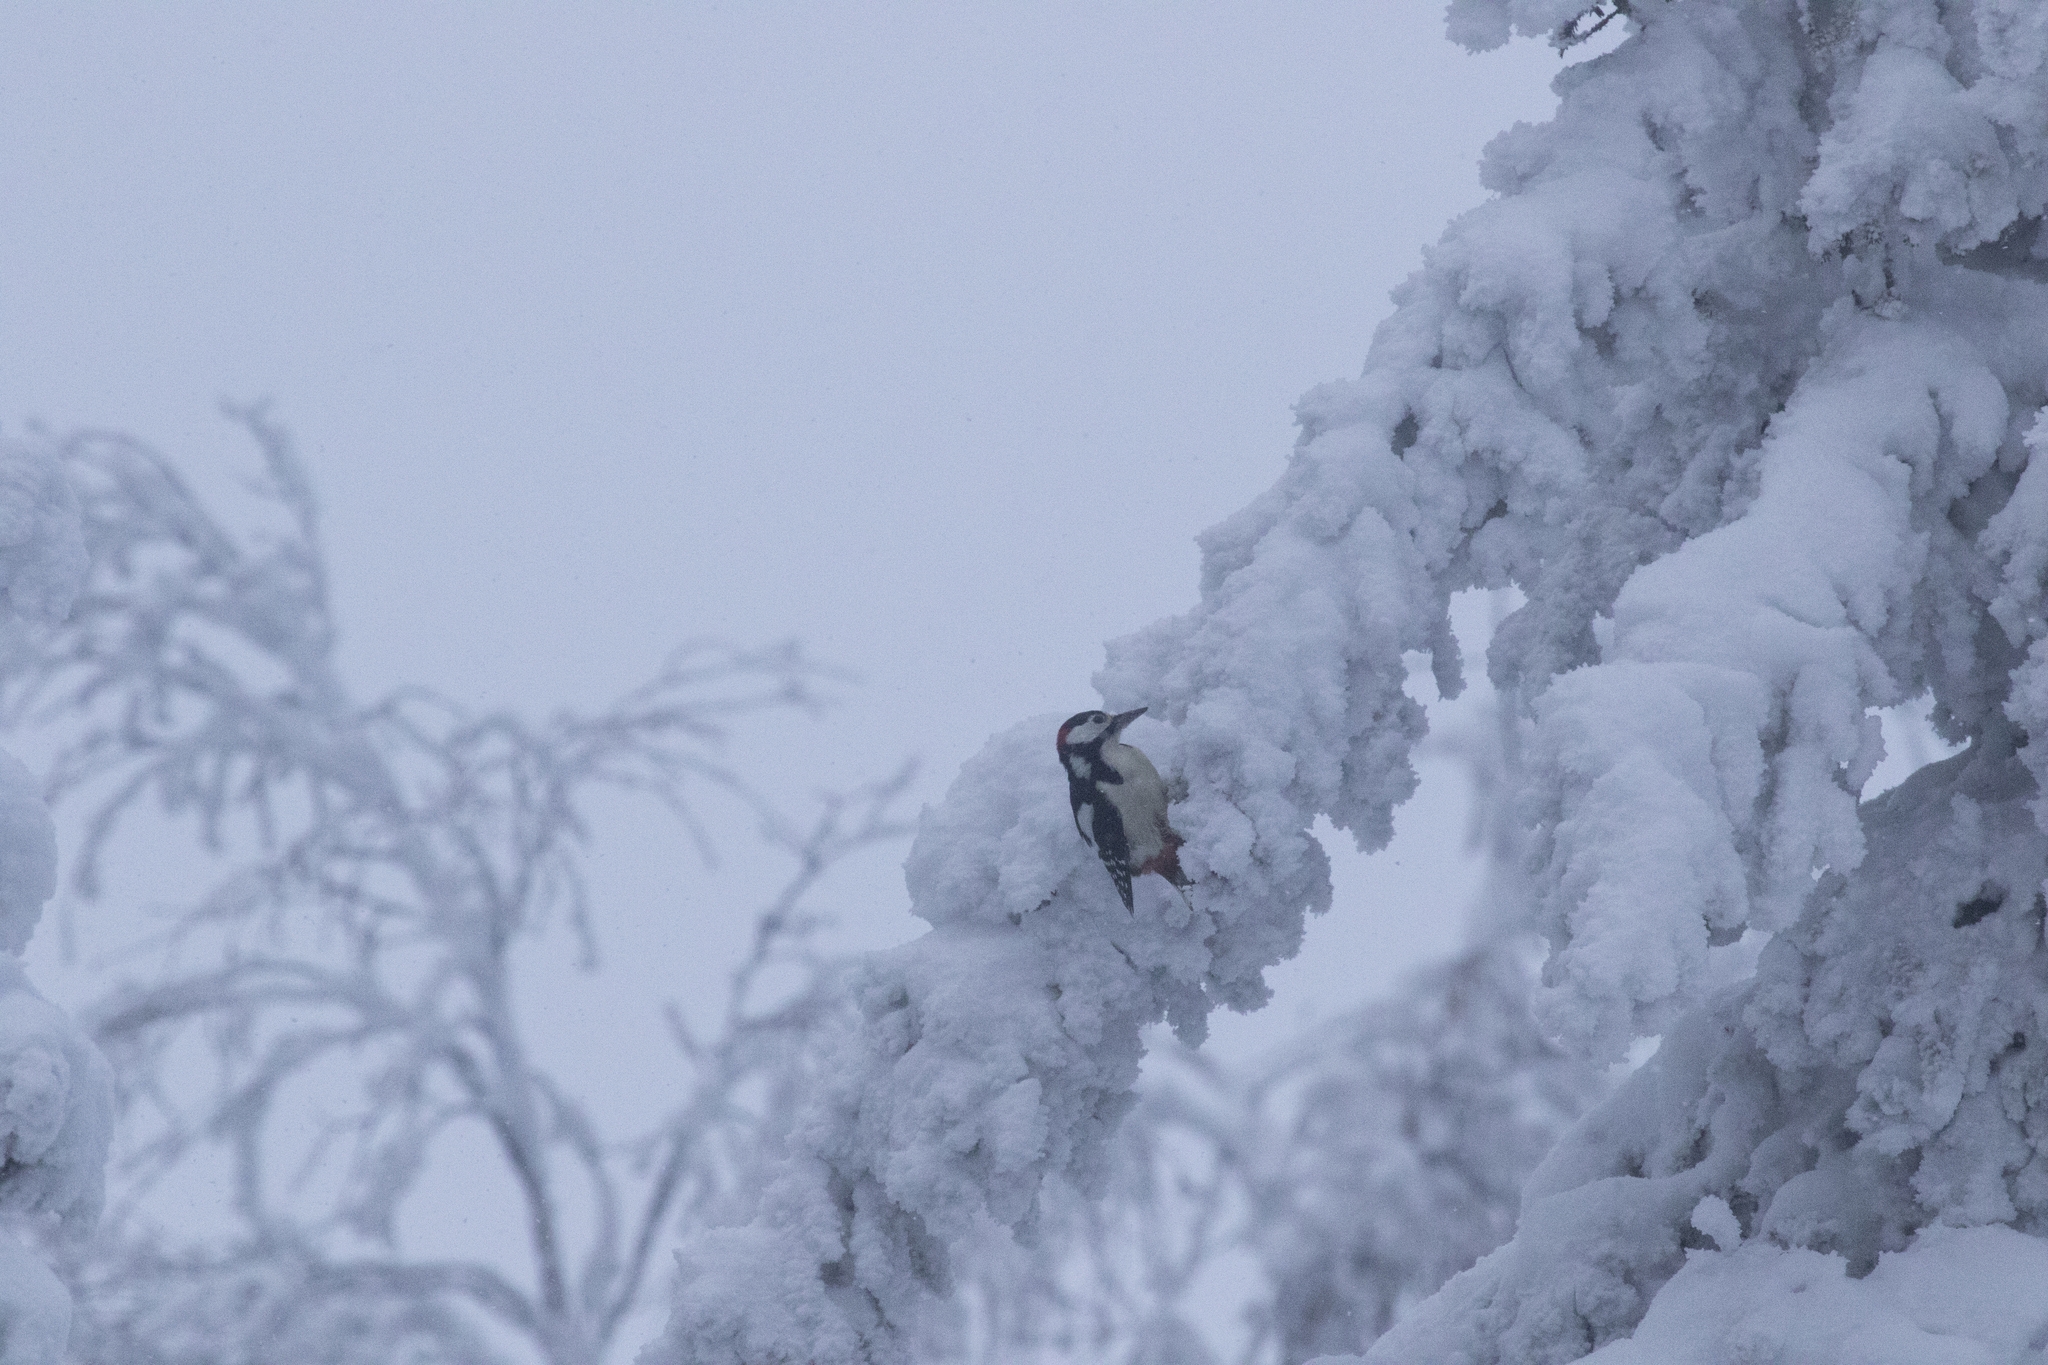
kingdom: Animalia
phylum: Chordata
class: Aves
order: Piciformes
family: Picidae
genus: Dendrocopos
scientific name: Dendrocopos major
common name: Great spotted woodpecker
